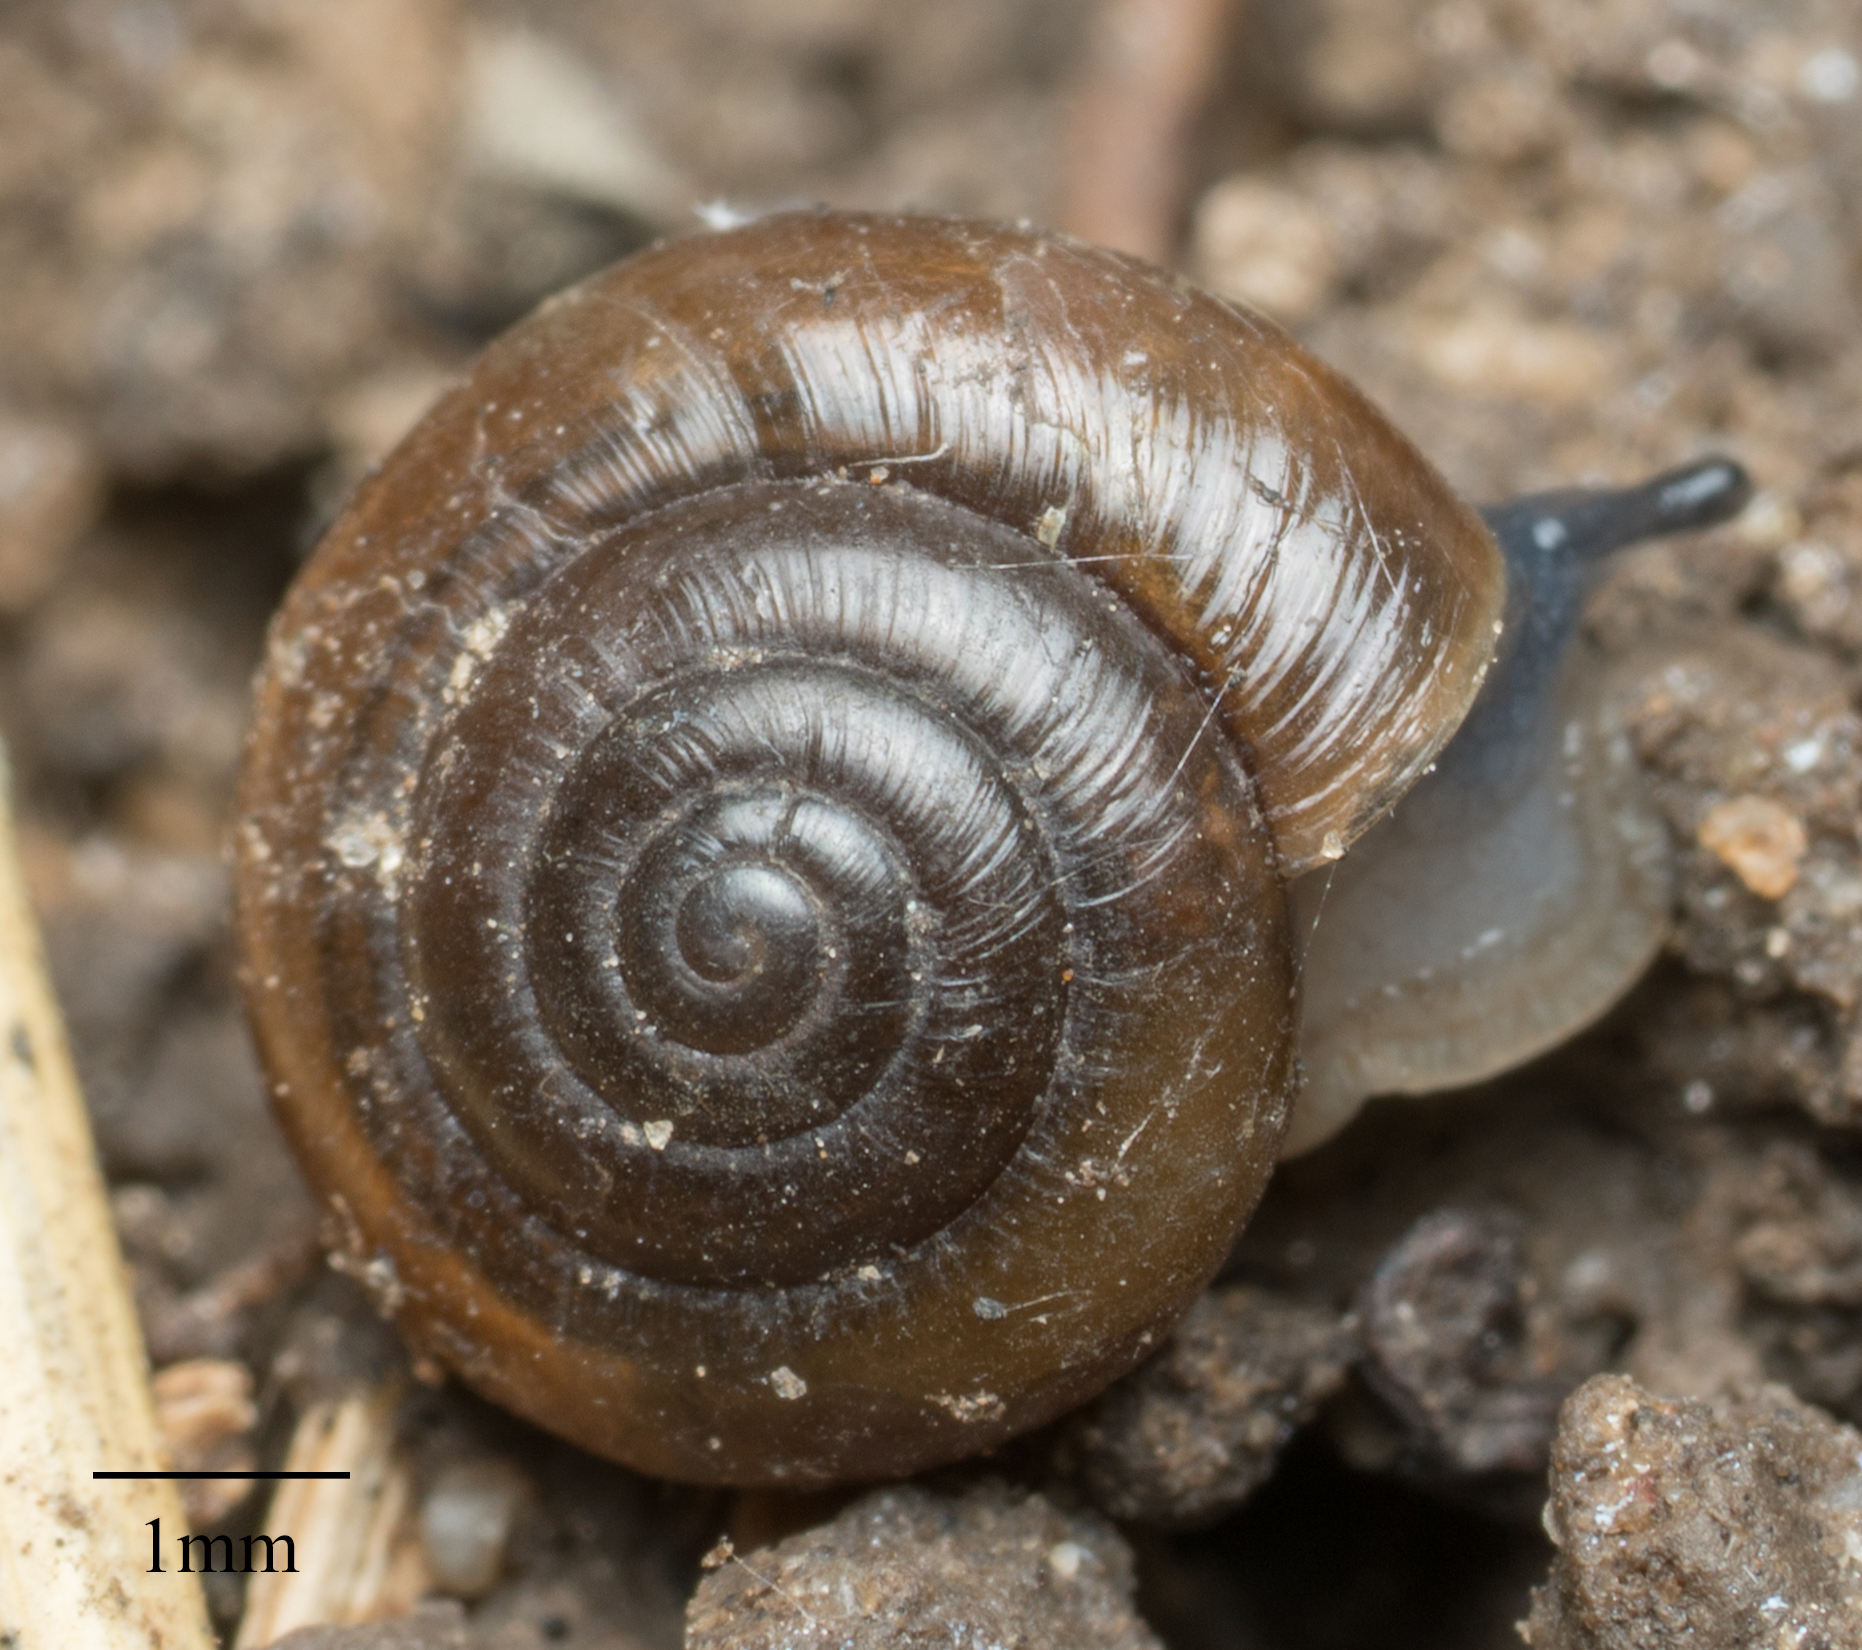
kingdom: Animalia
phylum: Mollusca
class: Gastropoda
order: Stylommatophora
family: Gastrodontidae
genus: Zonitoides
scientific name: Zonitoides arboreus
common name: Quick gloss
